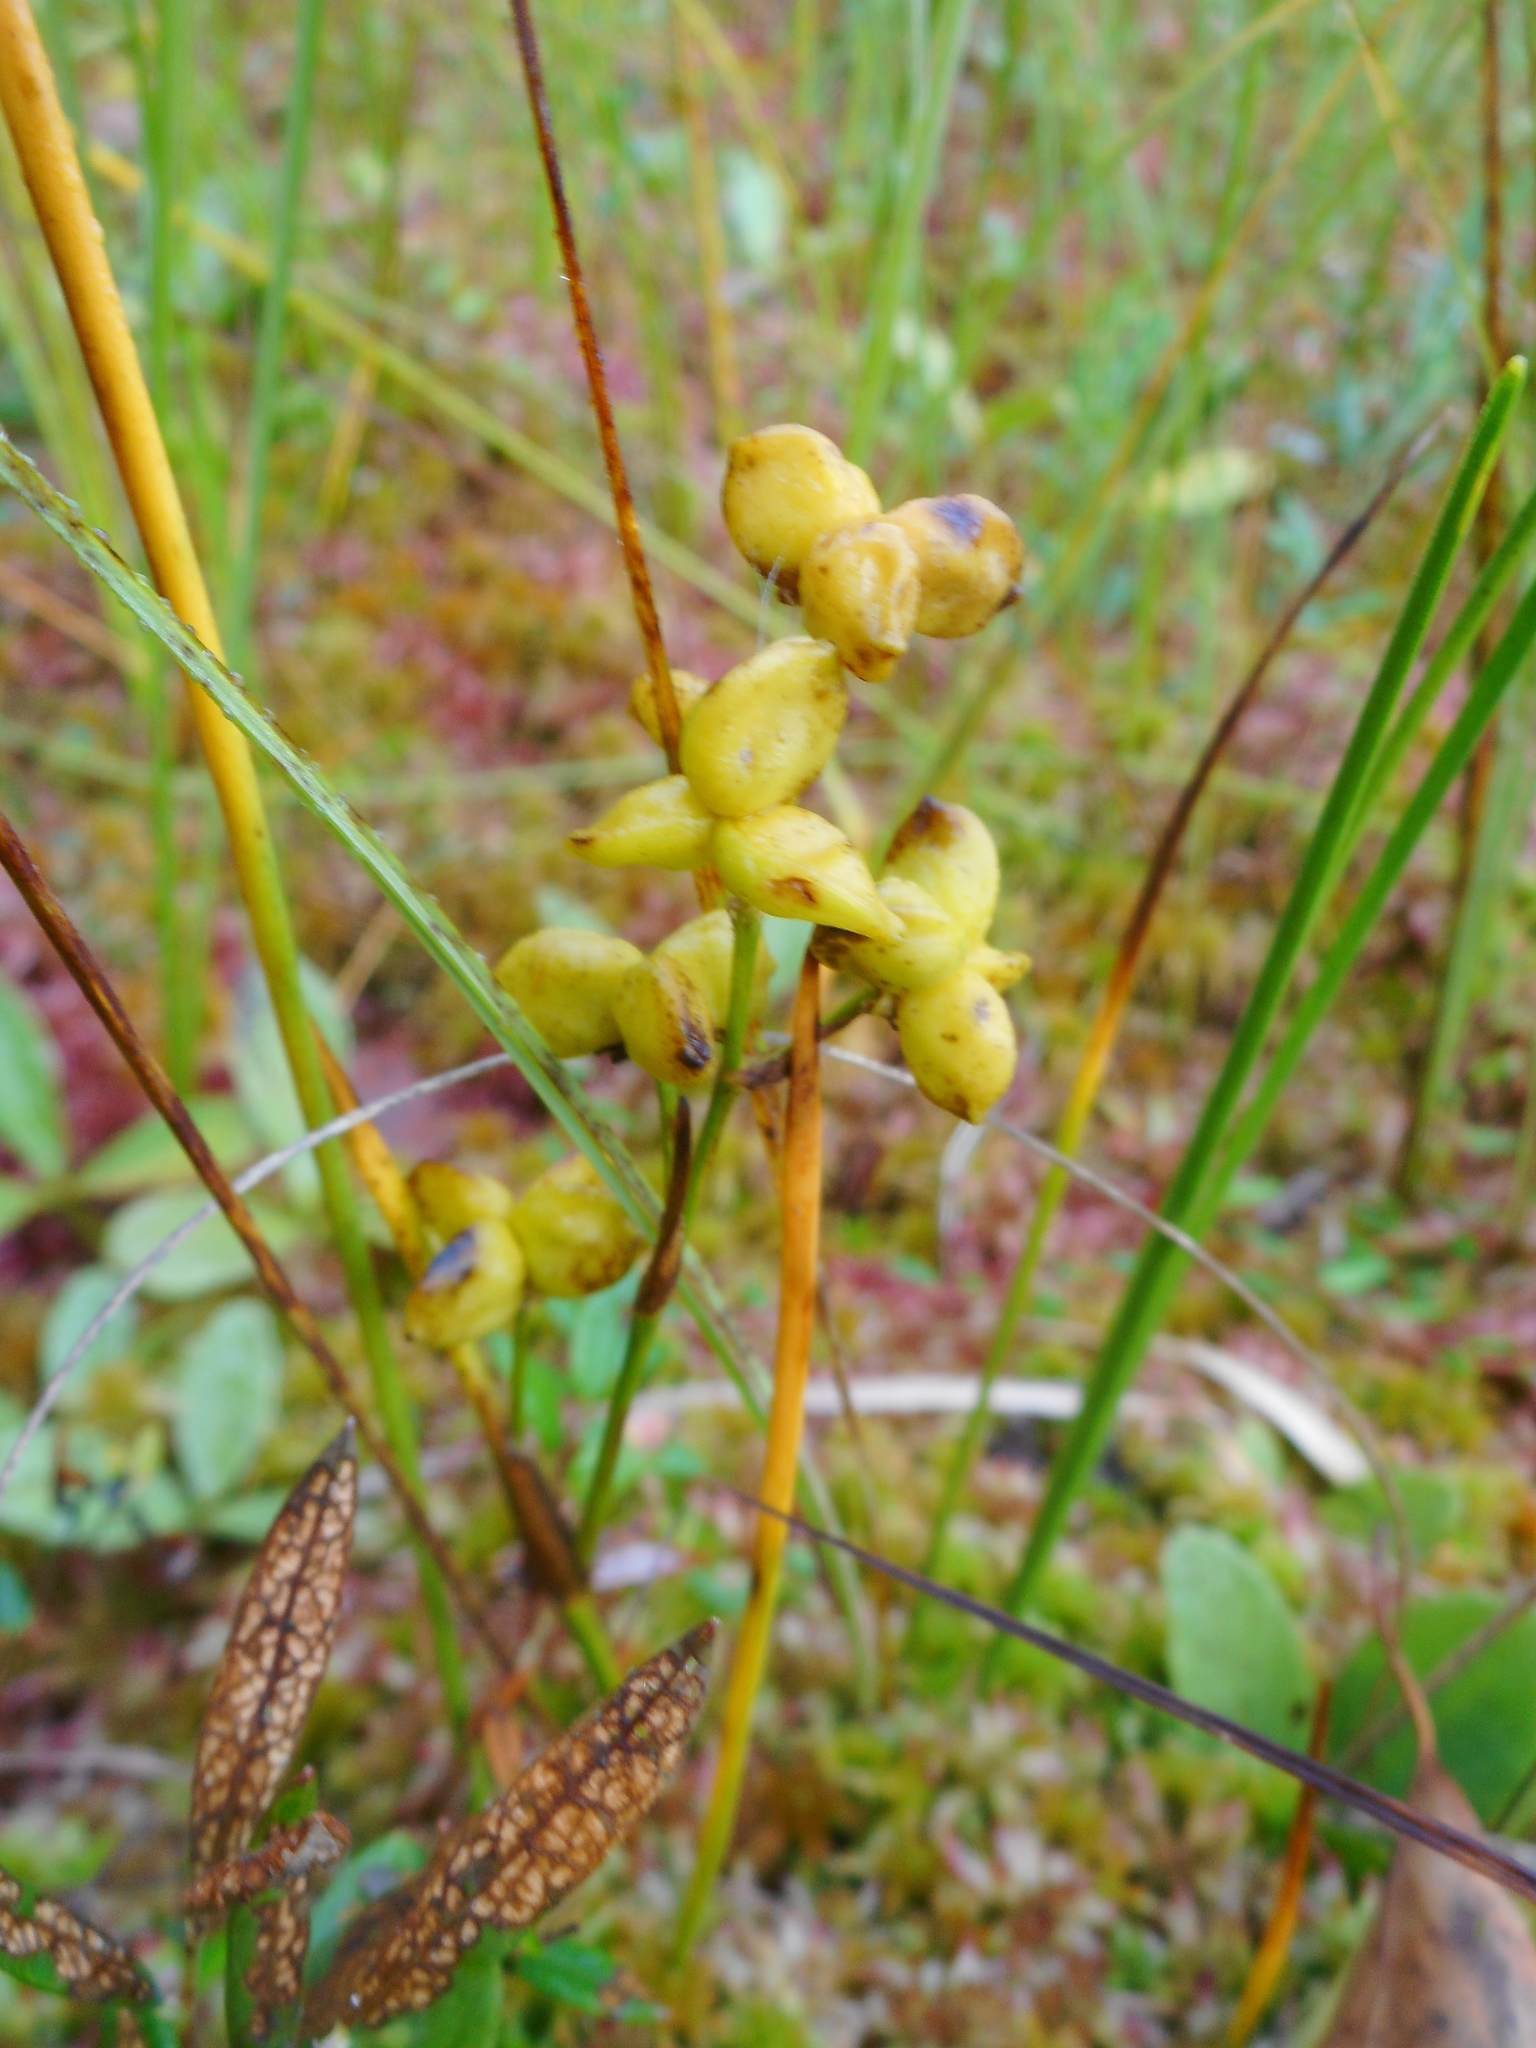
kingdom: Plantae
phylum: Tracheophyta
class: Liliopsida
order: Alismatales
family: Scheuchzeriaceae
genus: Scheuchzeria
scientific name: Scheuchzeria palustris
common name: Rannoch-rush
